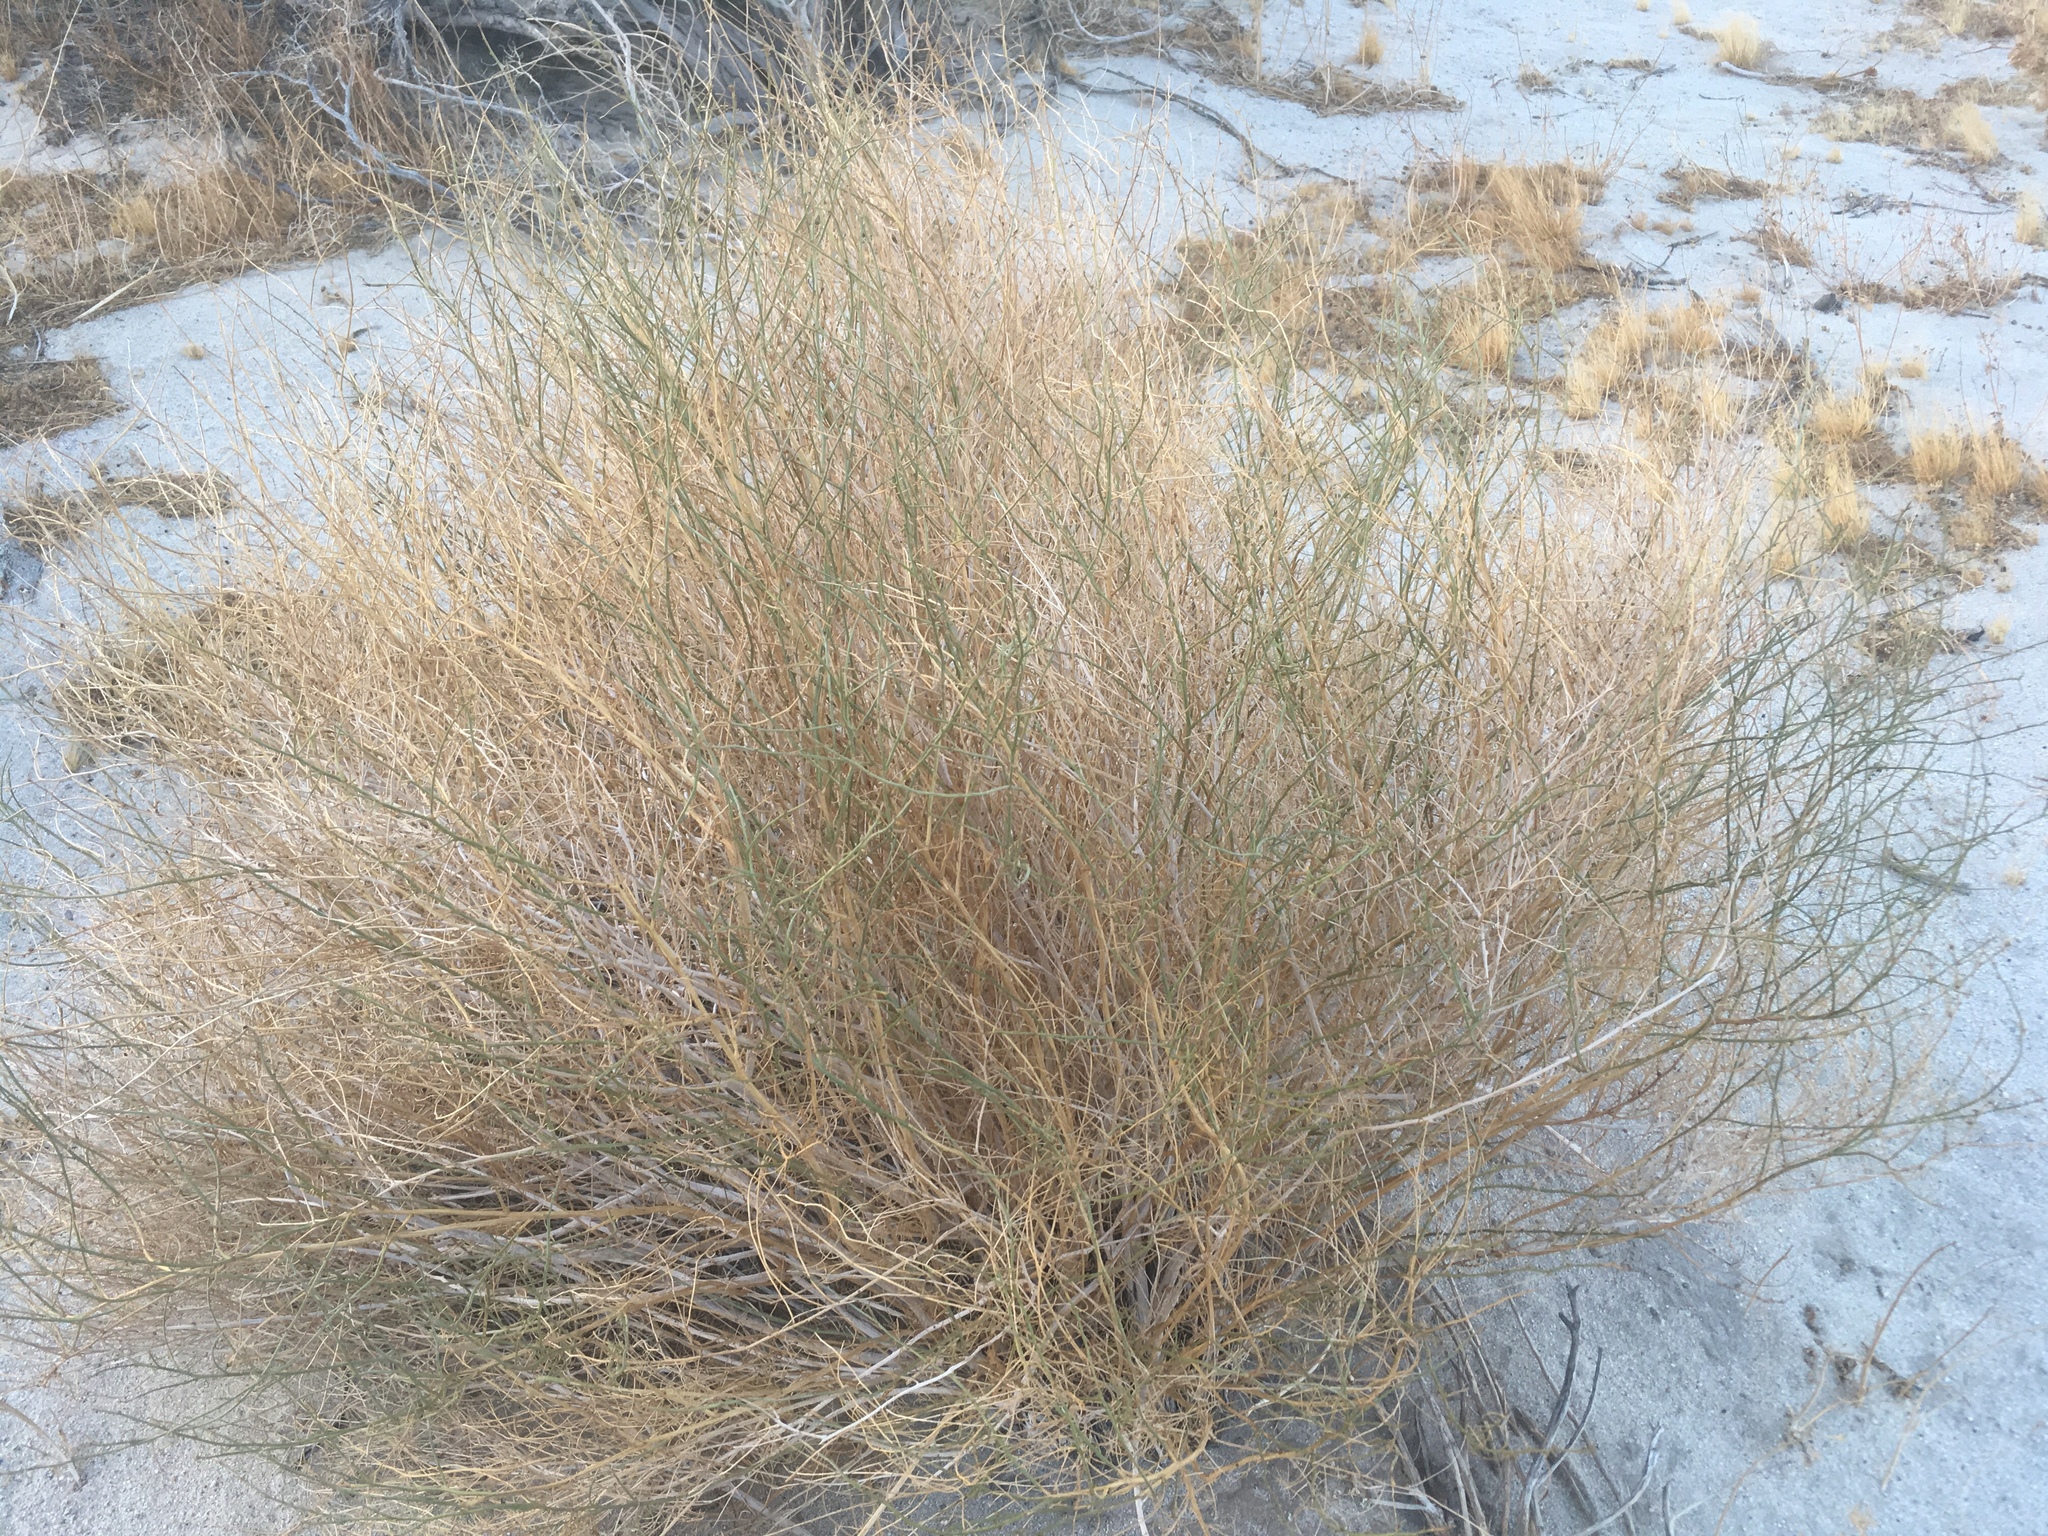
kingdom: Plantae
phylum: Tracheophyta
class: Magnoliopsida
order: Asterales
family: Asteraceae
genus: Ambrosia
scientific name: Ambrosia salsola
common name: Burrobrush
